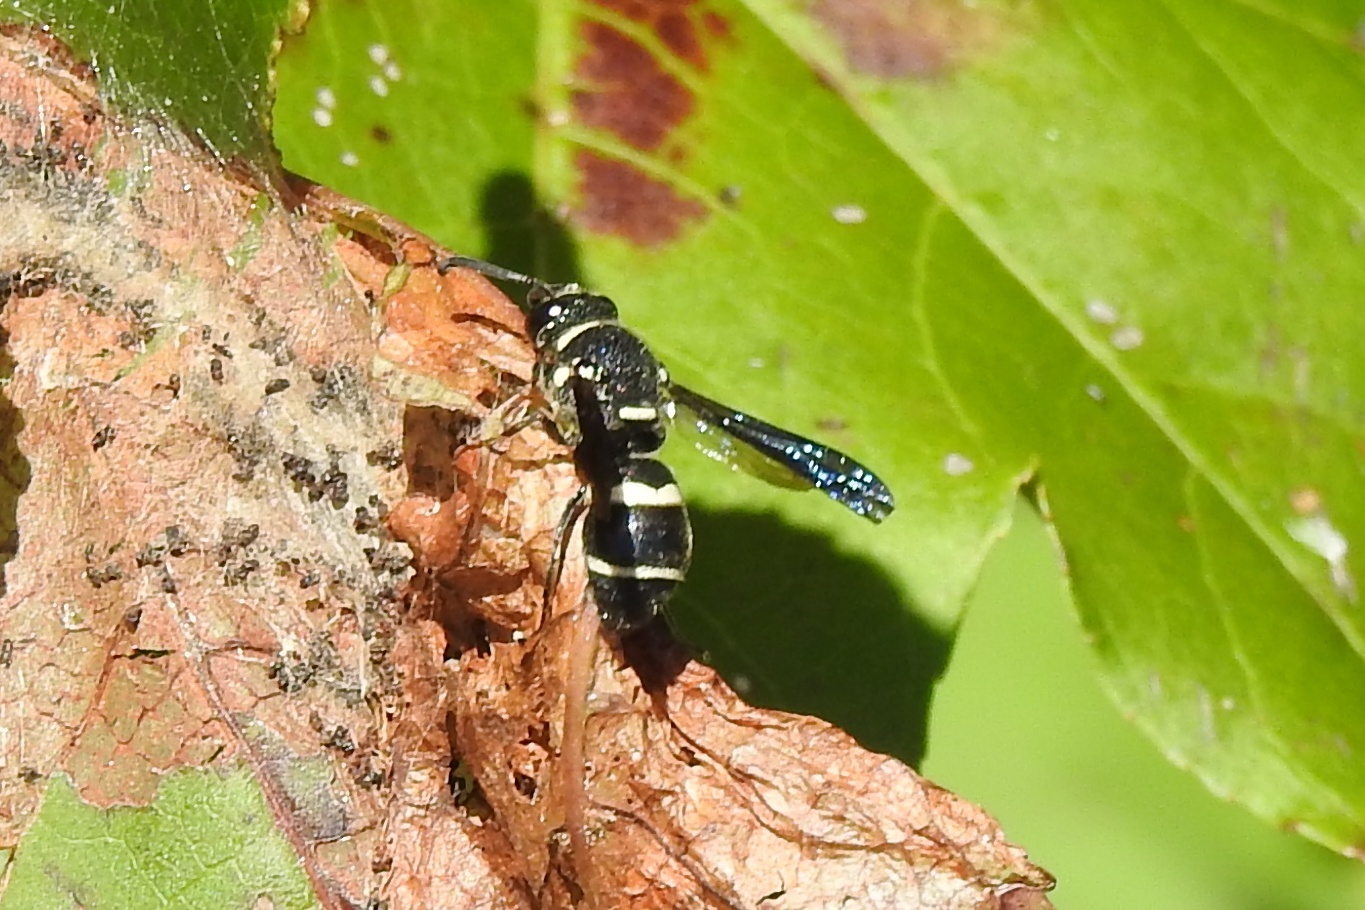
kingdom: Animalia
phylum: Arthropoda
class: Insecta
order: Hymenoptera
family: Eumenidae
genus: Euodynerus
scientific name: Euodynerus megaera
